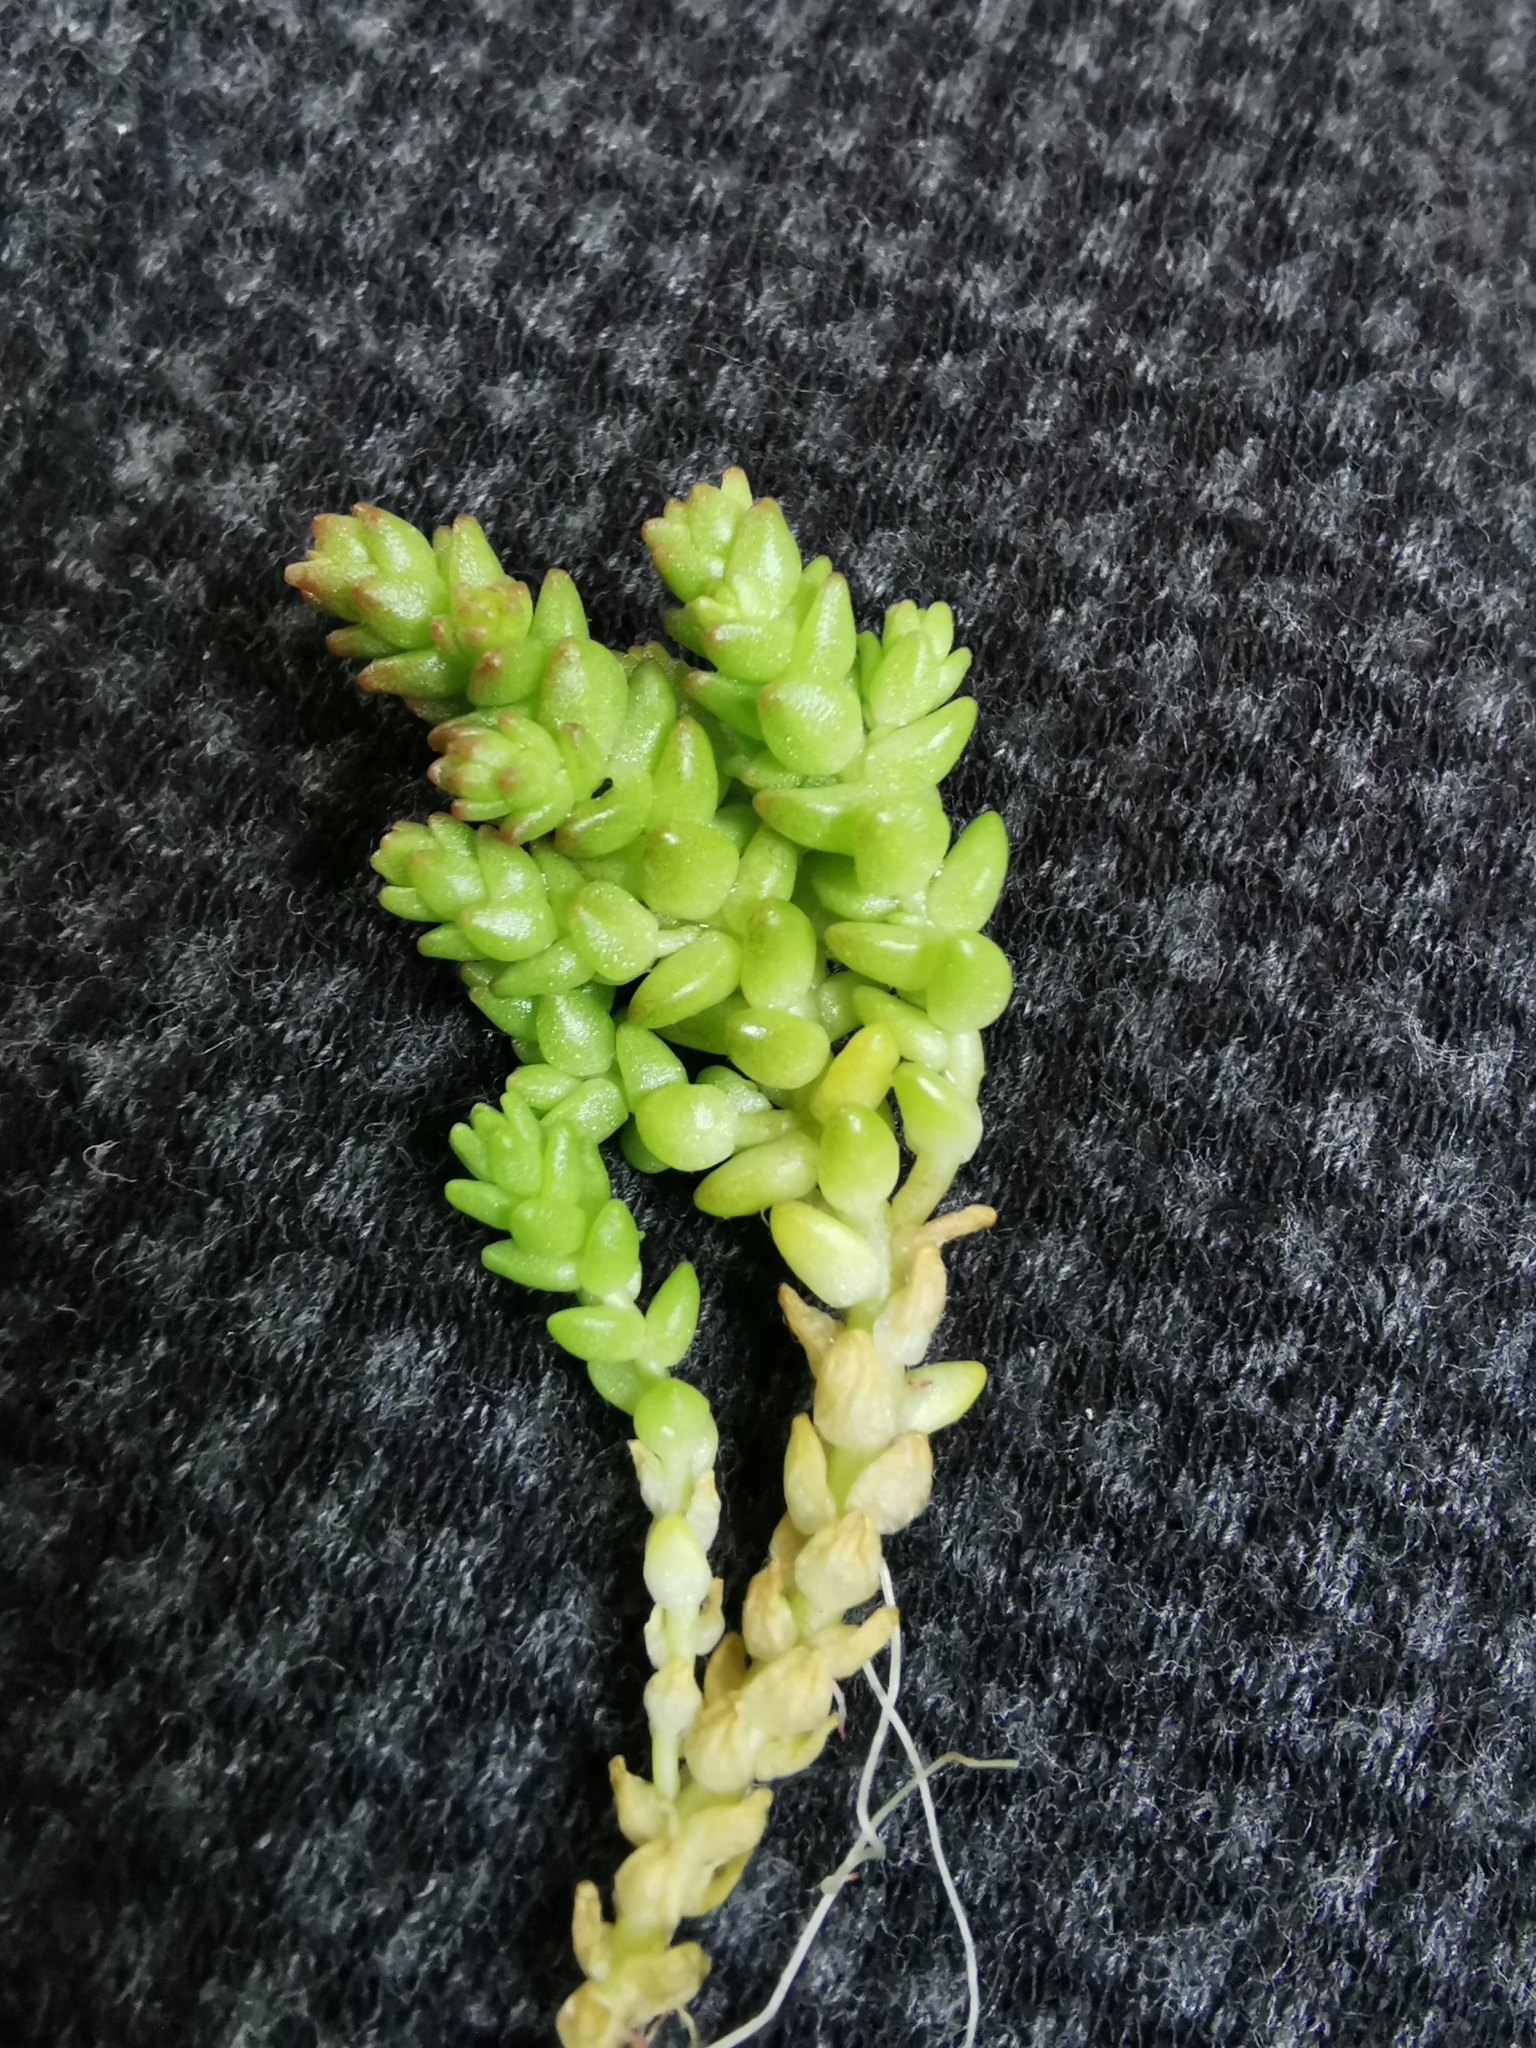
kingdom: Plantae
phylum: Tracheophyta
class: Magnoliopsida
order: Saxifragales
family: Crassulaceae
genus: Sedum
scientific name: Sedum acre
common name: Biting stonecrop
